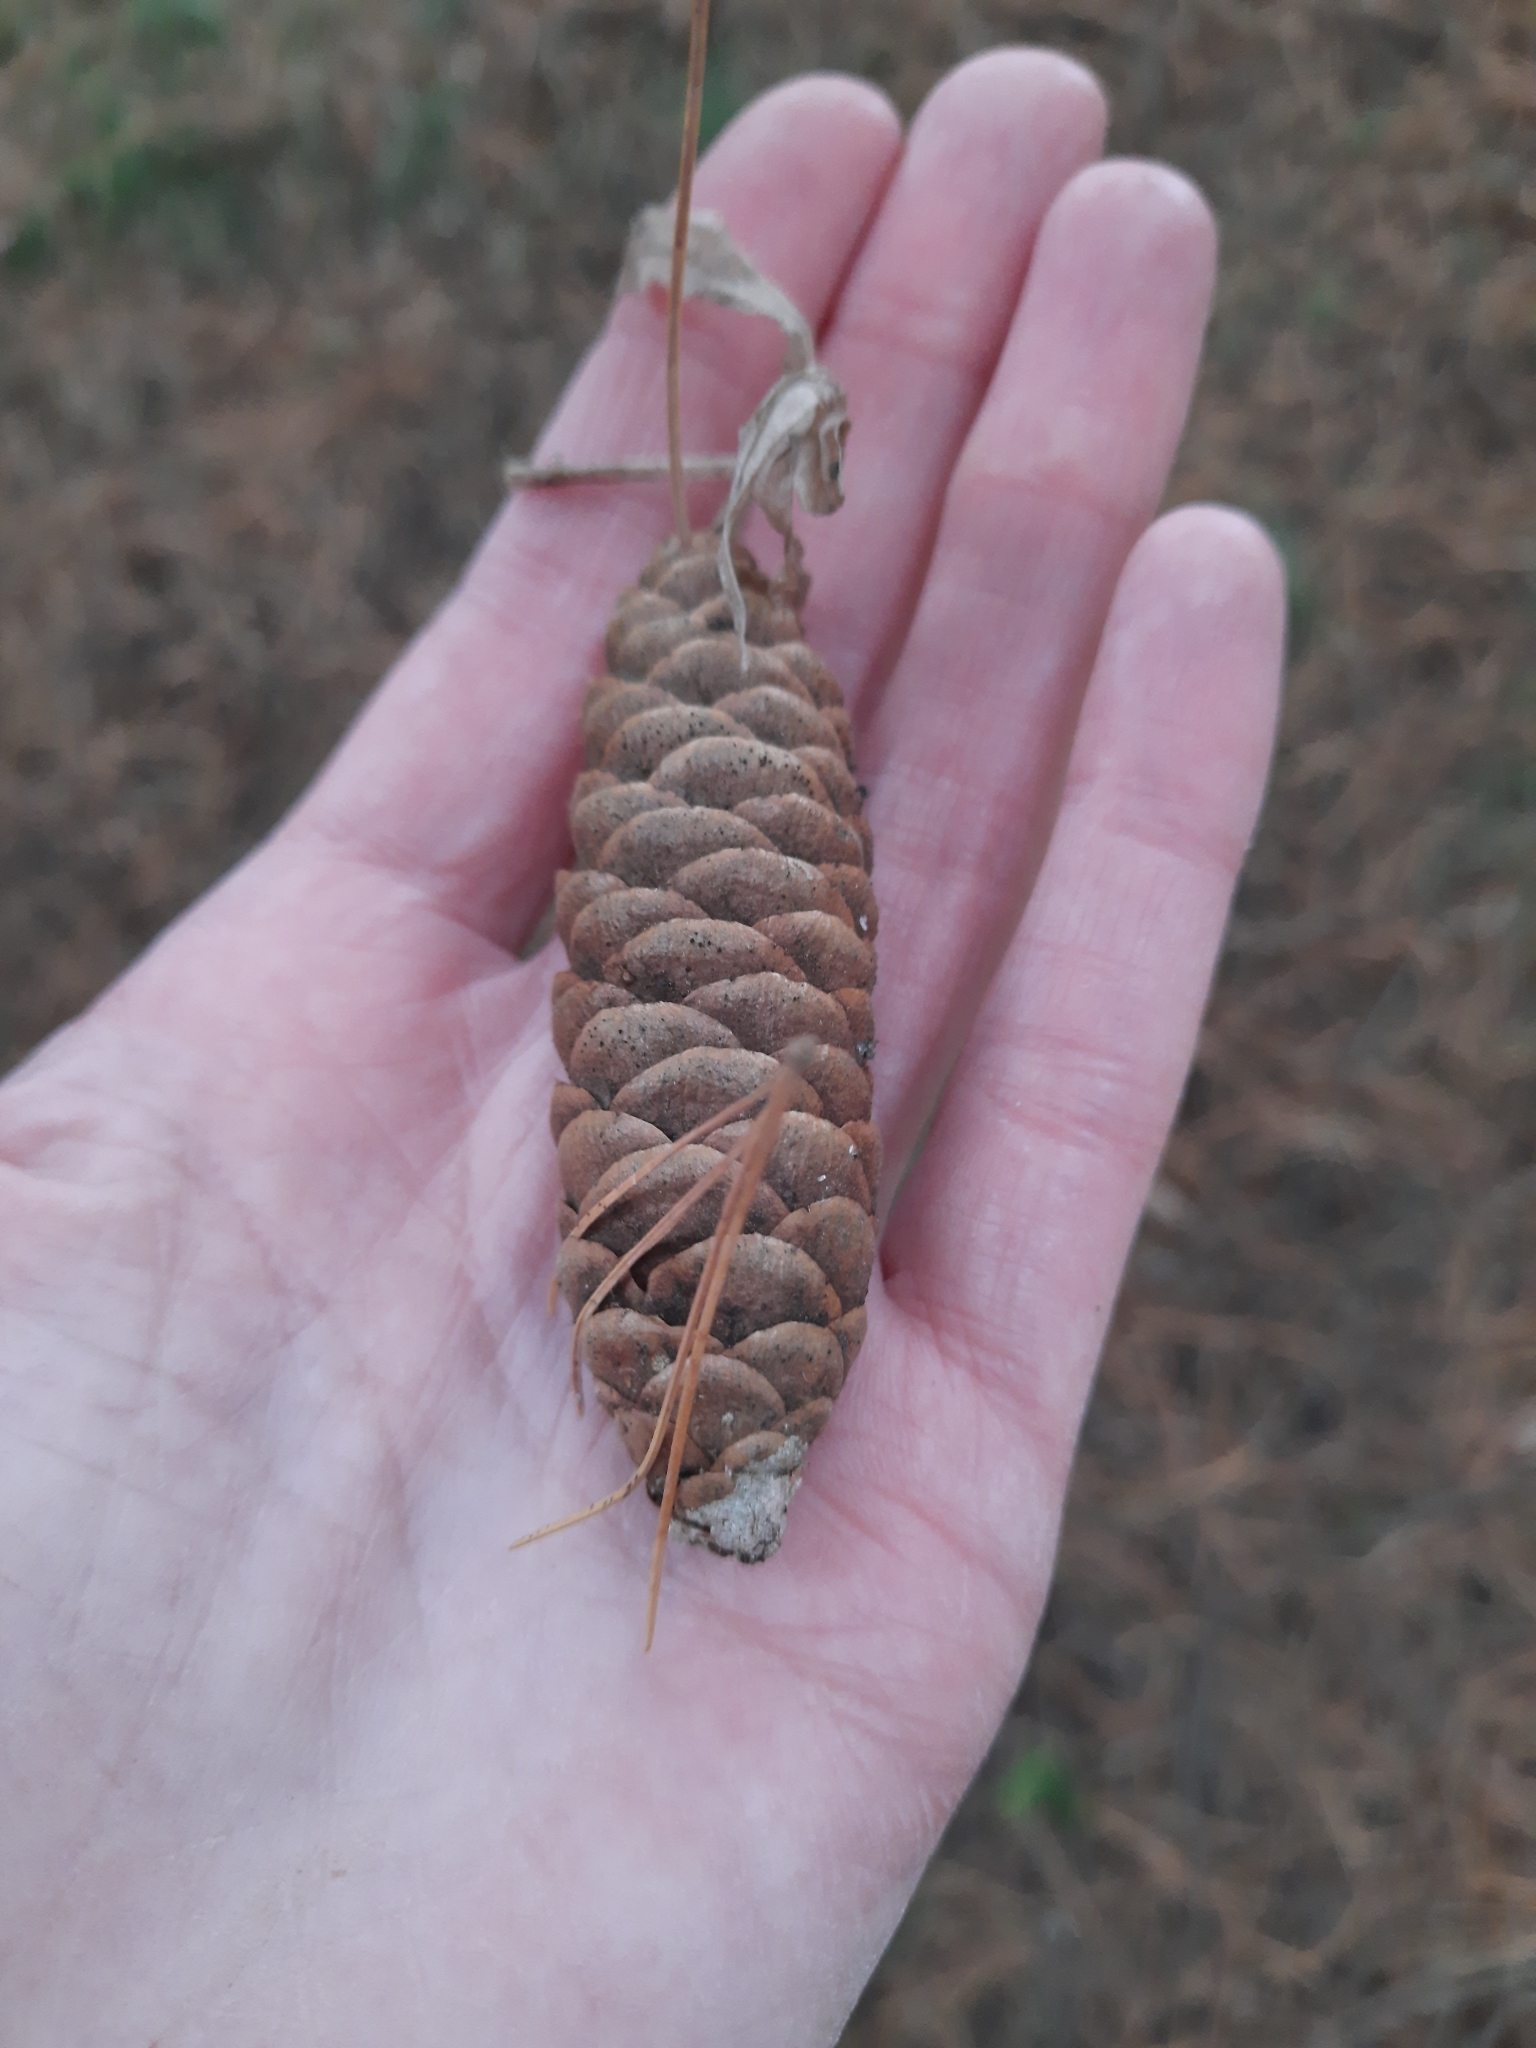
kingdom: Plantae
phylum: Tracheophyta
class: Pinopsida
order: Pinales
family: Pinaceae
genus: Picea
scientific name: Picea obovata
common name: Siberian spruce
